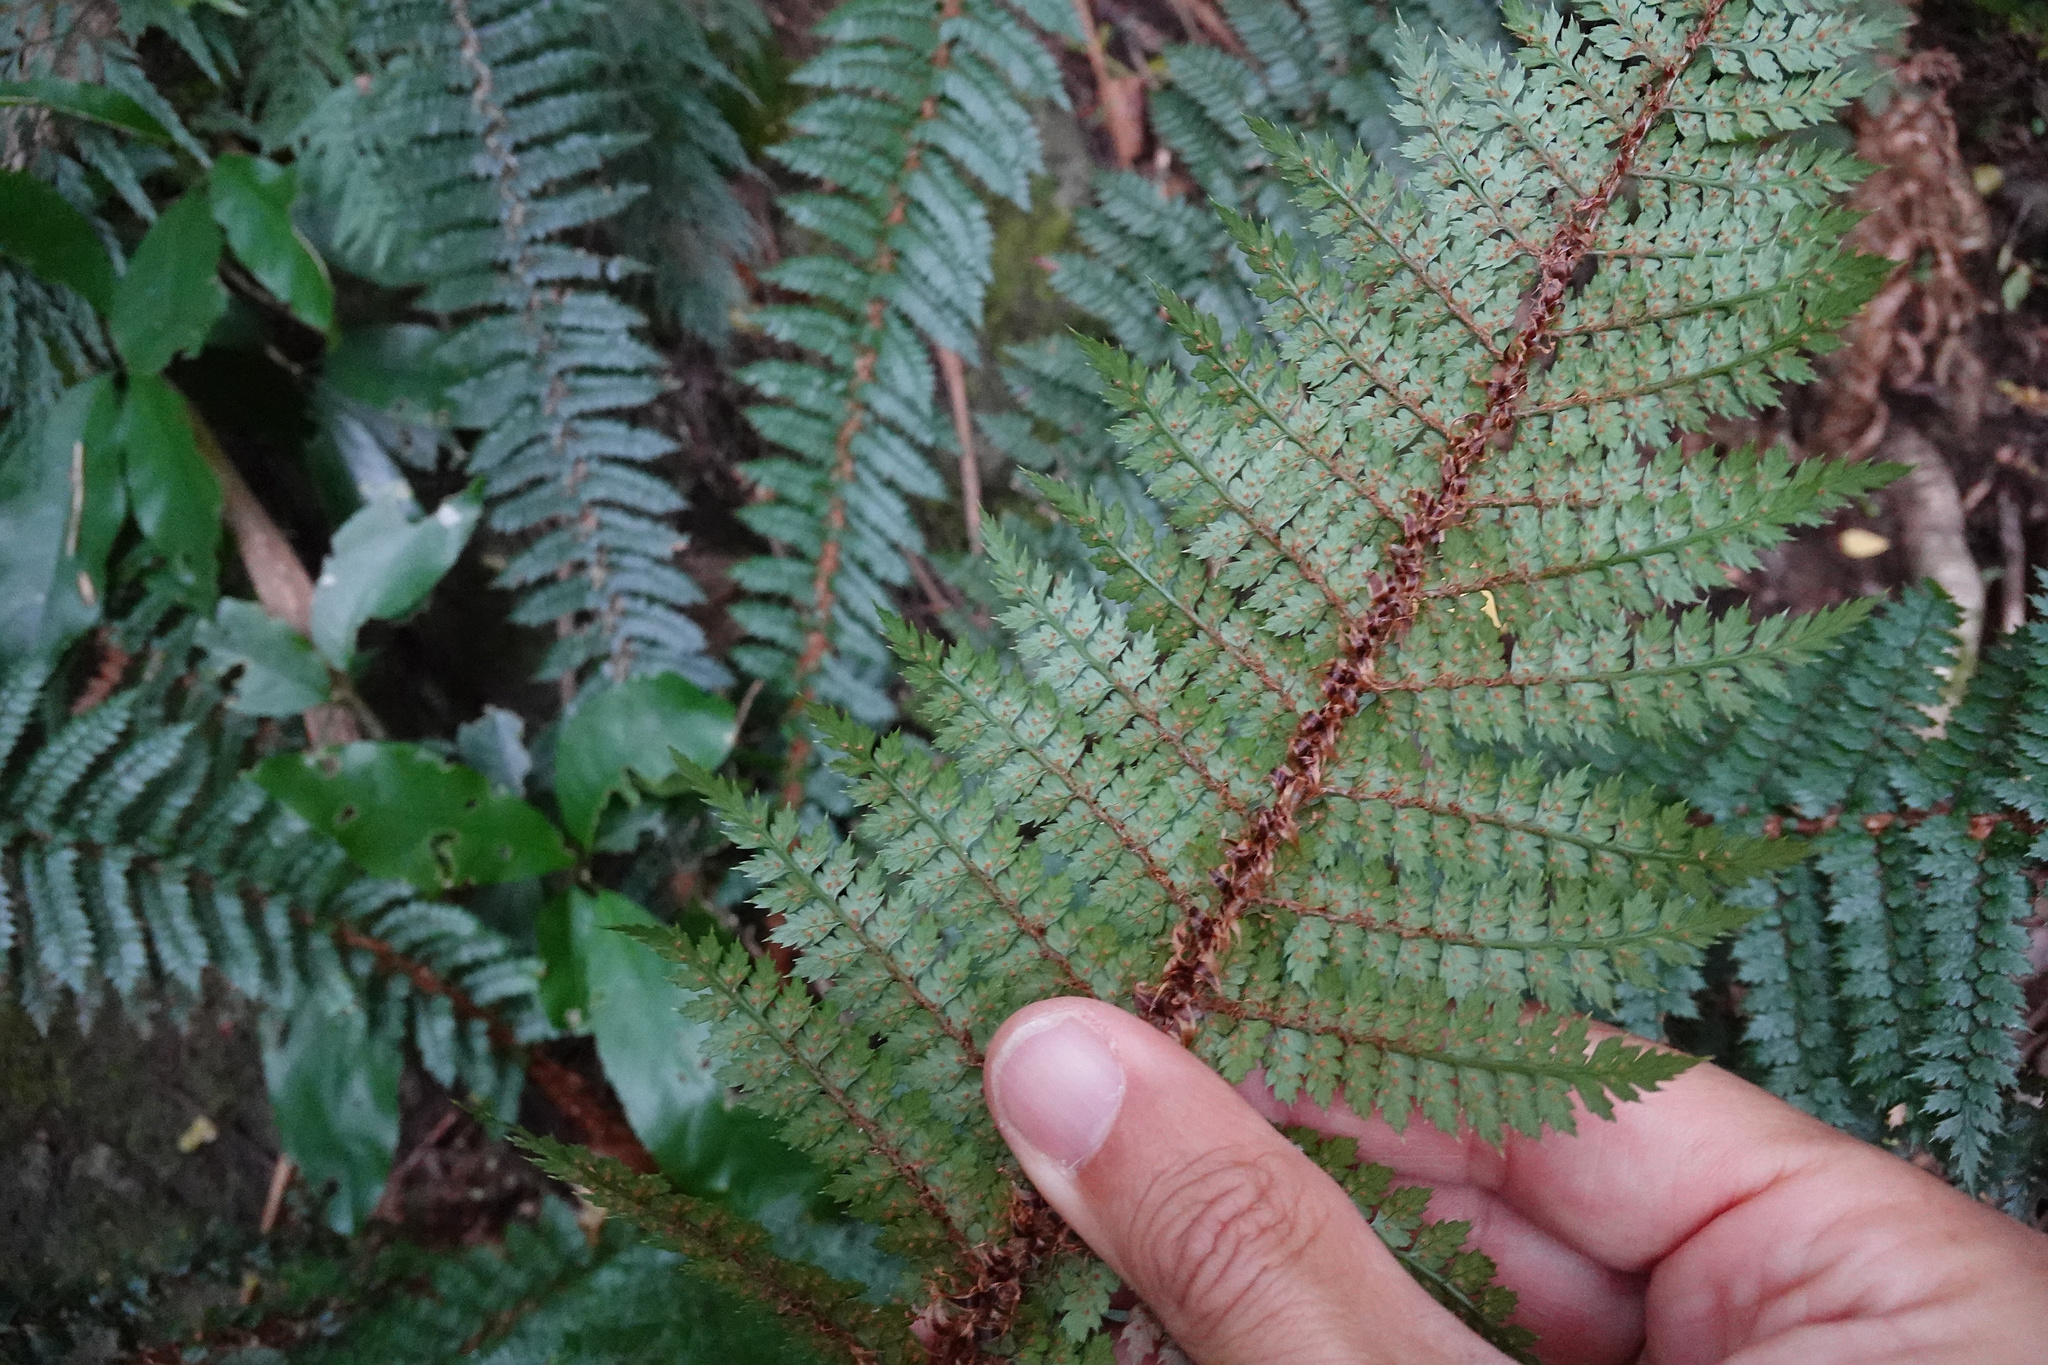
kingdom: Plantae
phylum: Tracheophyta
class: Polypodiopsida
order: Polypodiales
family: Dryopteridaceae
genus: Polystichum
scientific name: Polystichum vestitum
